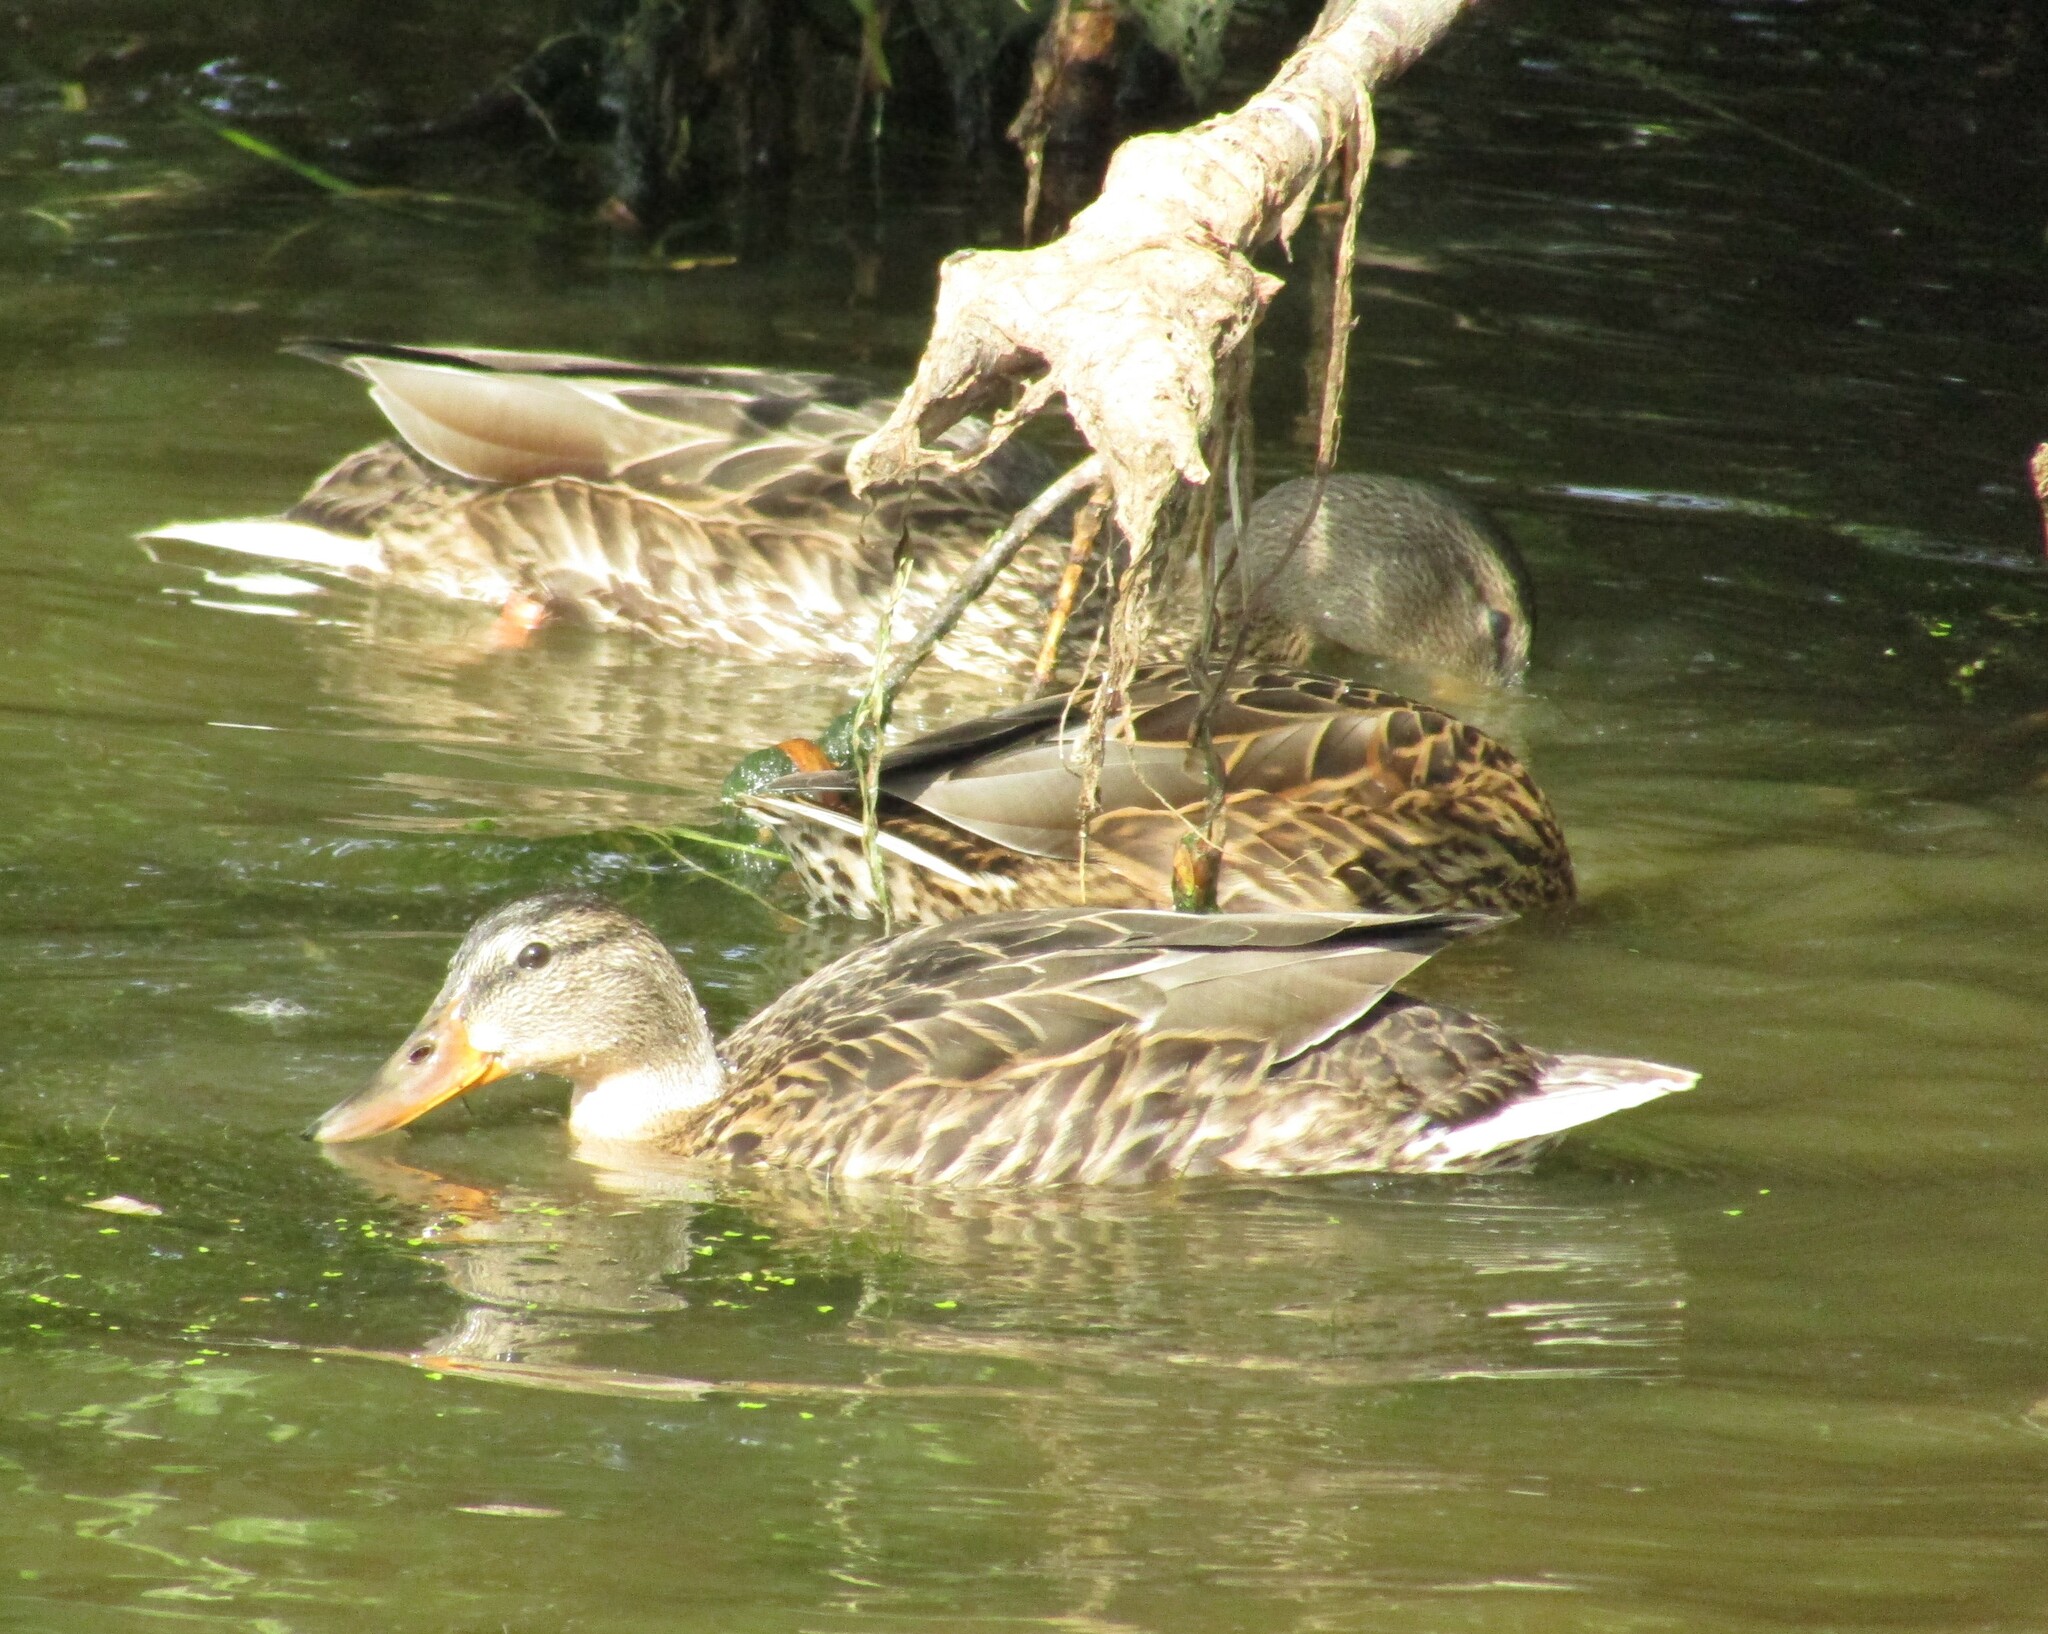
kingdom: Animalia
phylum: Chordata
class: Aves
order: Anseriformes
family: Anatidae
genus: Anas
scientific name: Anas platyrhynchos
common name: Mallard
